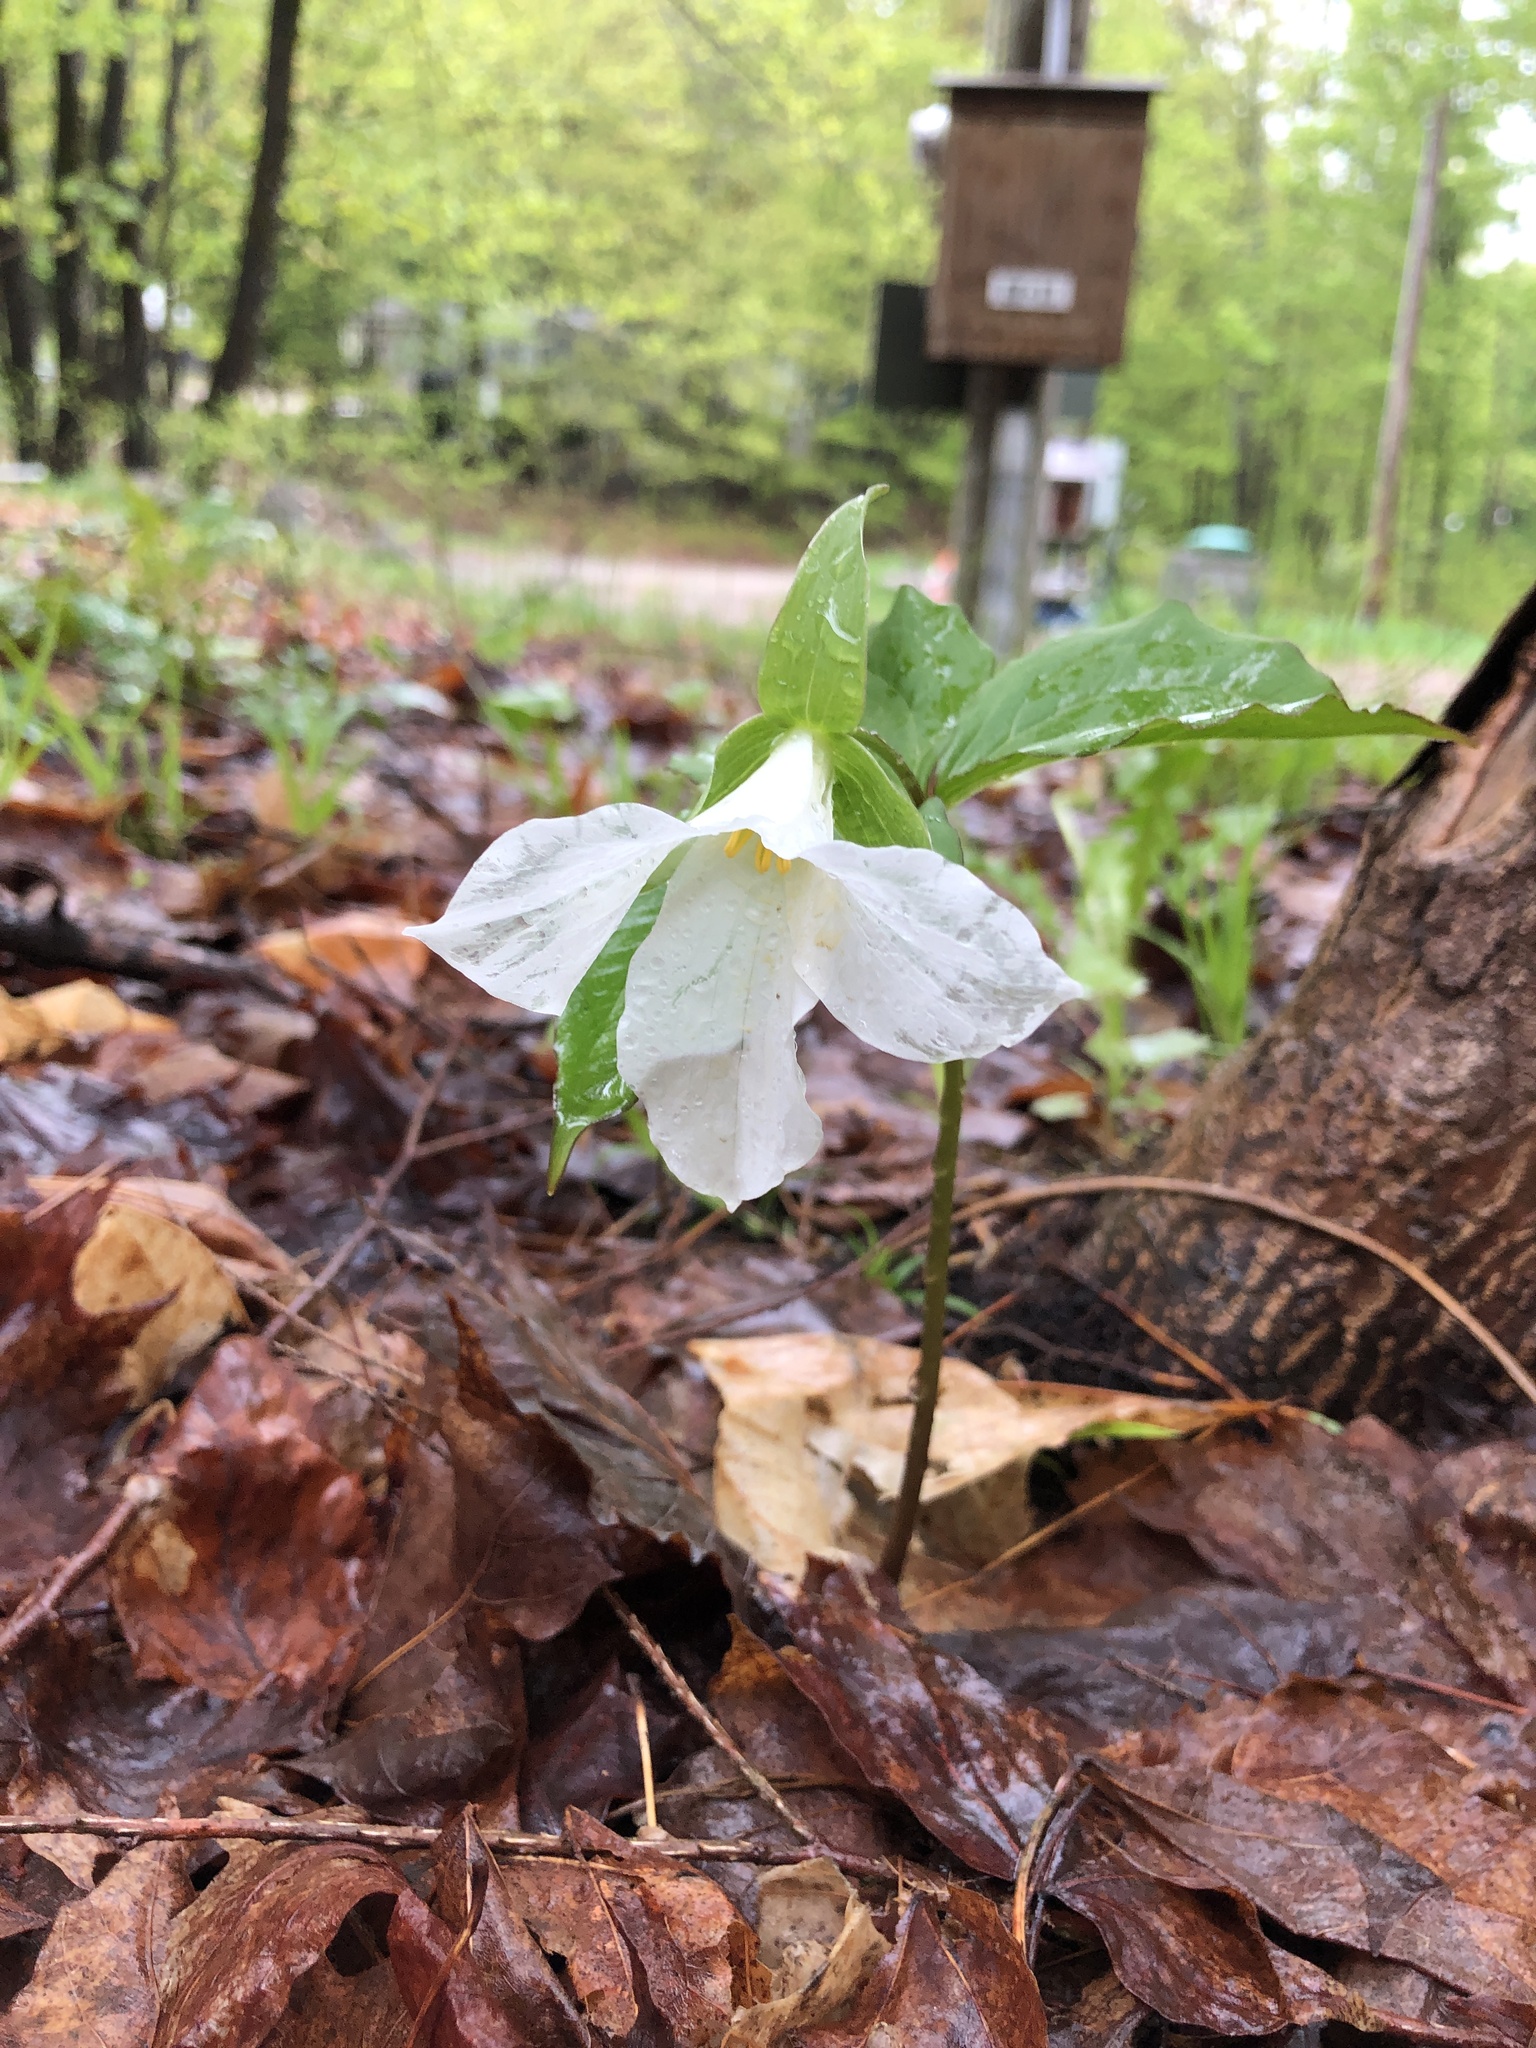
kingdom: Plantae
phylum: Tracheophyta
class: Liliopsida
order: Liliales
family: Melanthiaceae
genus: Trillium
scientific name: Trillium grandiflorum
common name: Great white trillium
